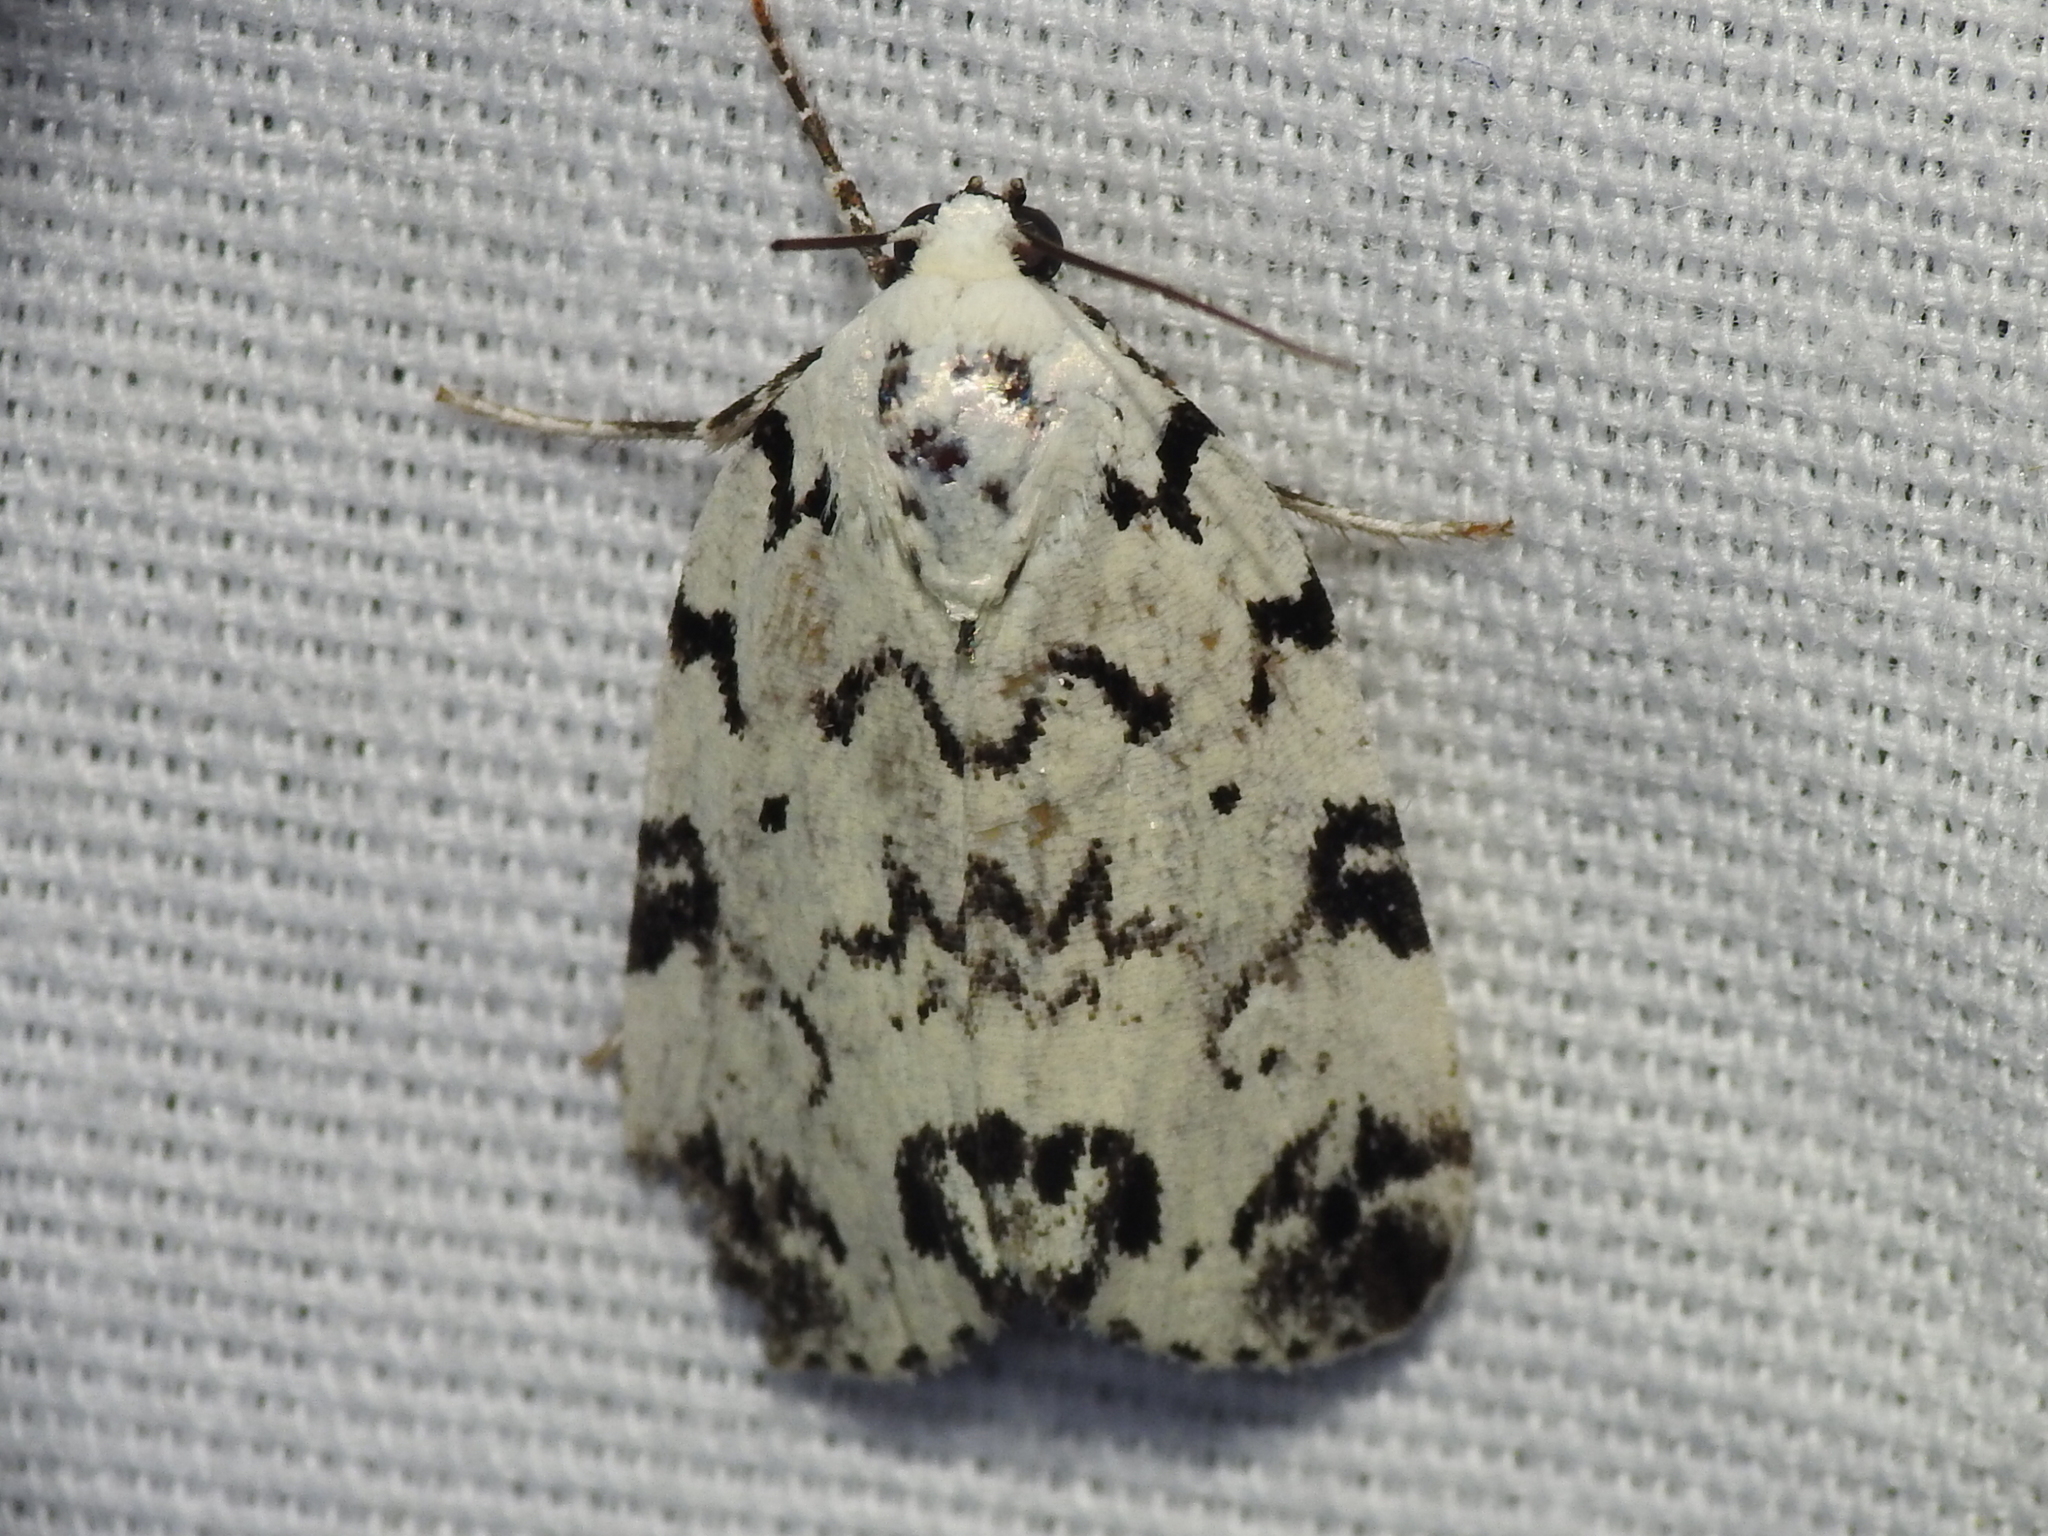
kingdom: Animalia
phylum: Arthropoda
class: Insecta
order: Lepidoptera
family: Noctuidae
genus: Polygrammate
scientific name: Polygrammate hebraeicum
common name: Hebrew moth
